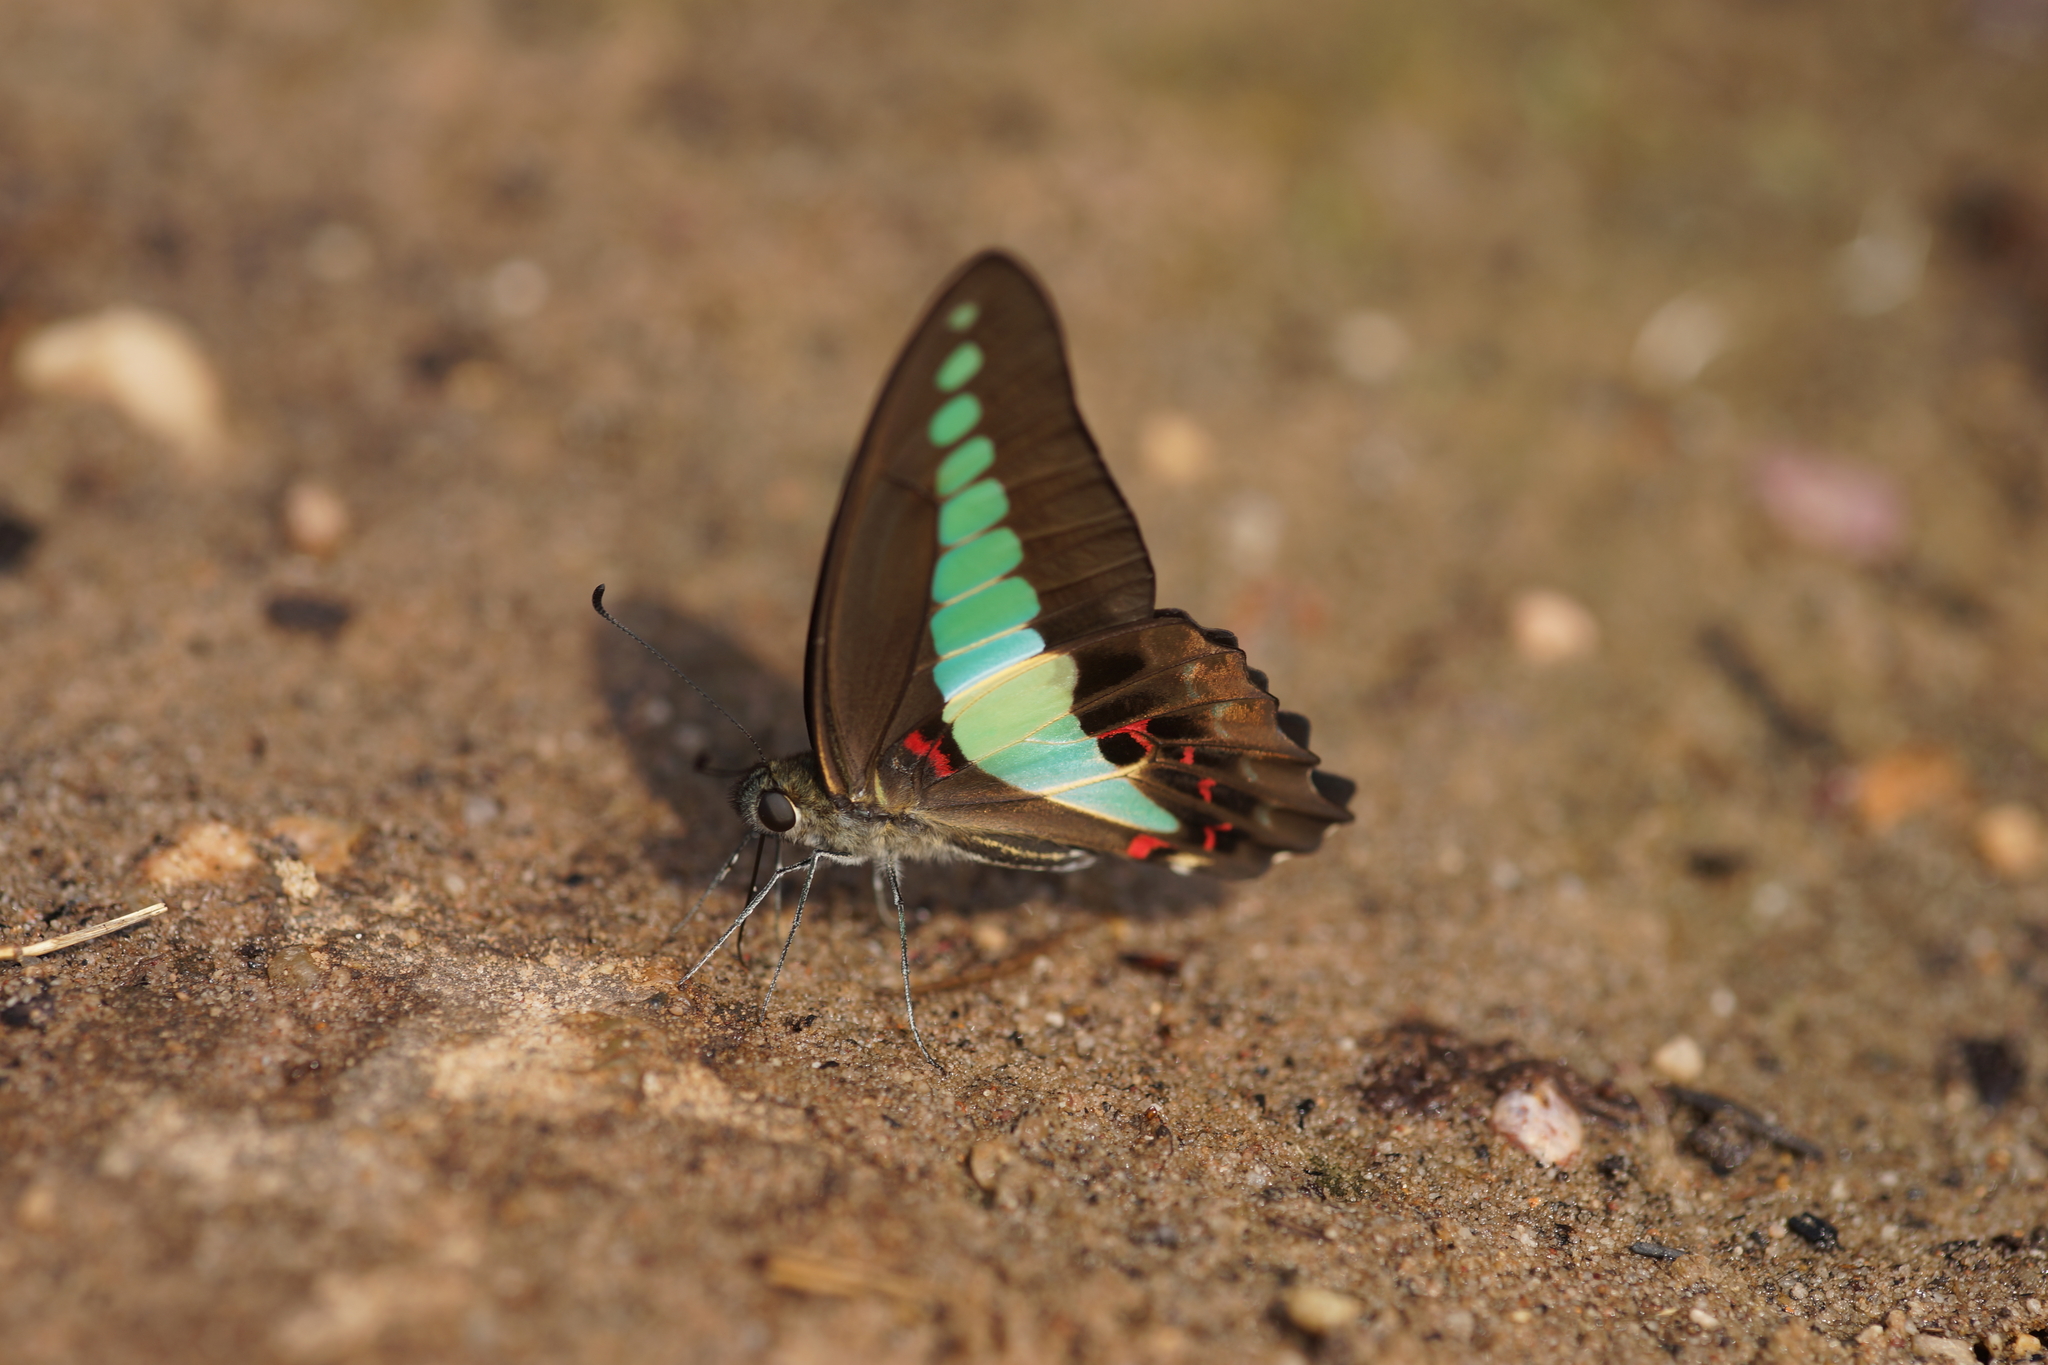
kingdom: Fungi
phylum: Ascomycota
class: Sordariomycetes
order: Microascales
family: Microascaceae
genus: Graphium
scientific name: Graphium sarpedon
